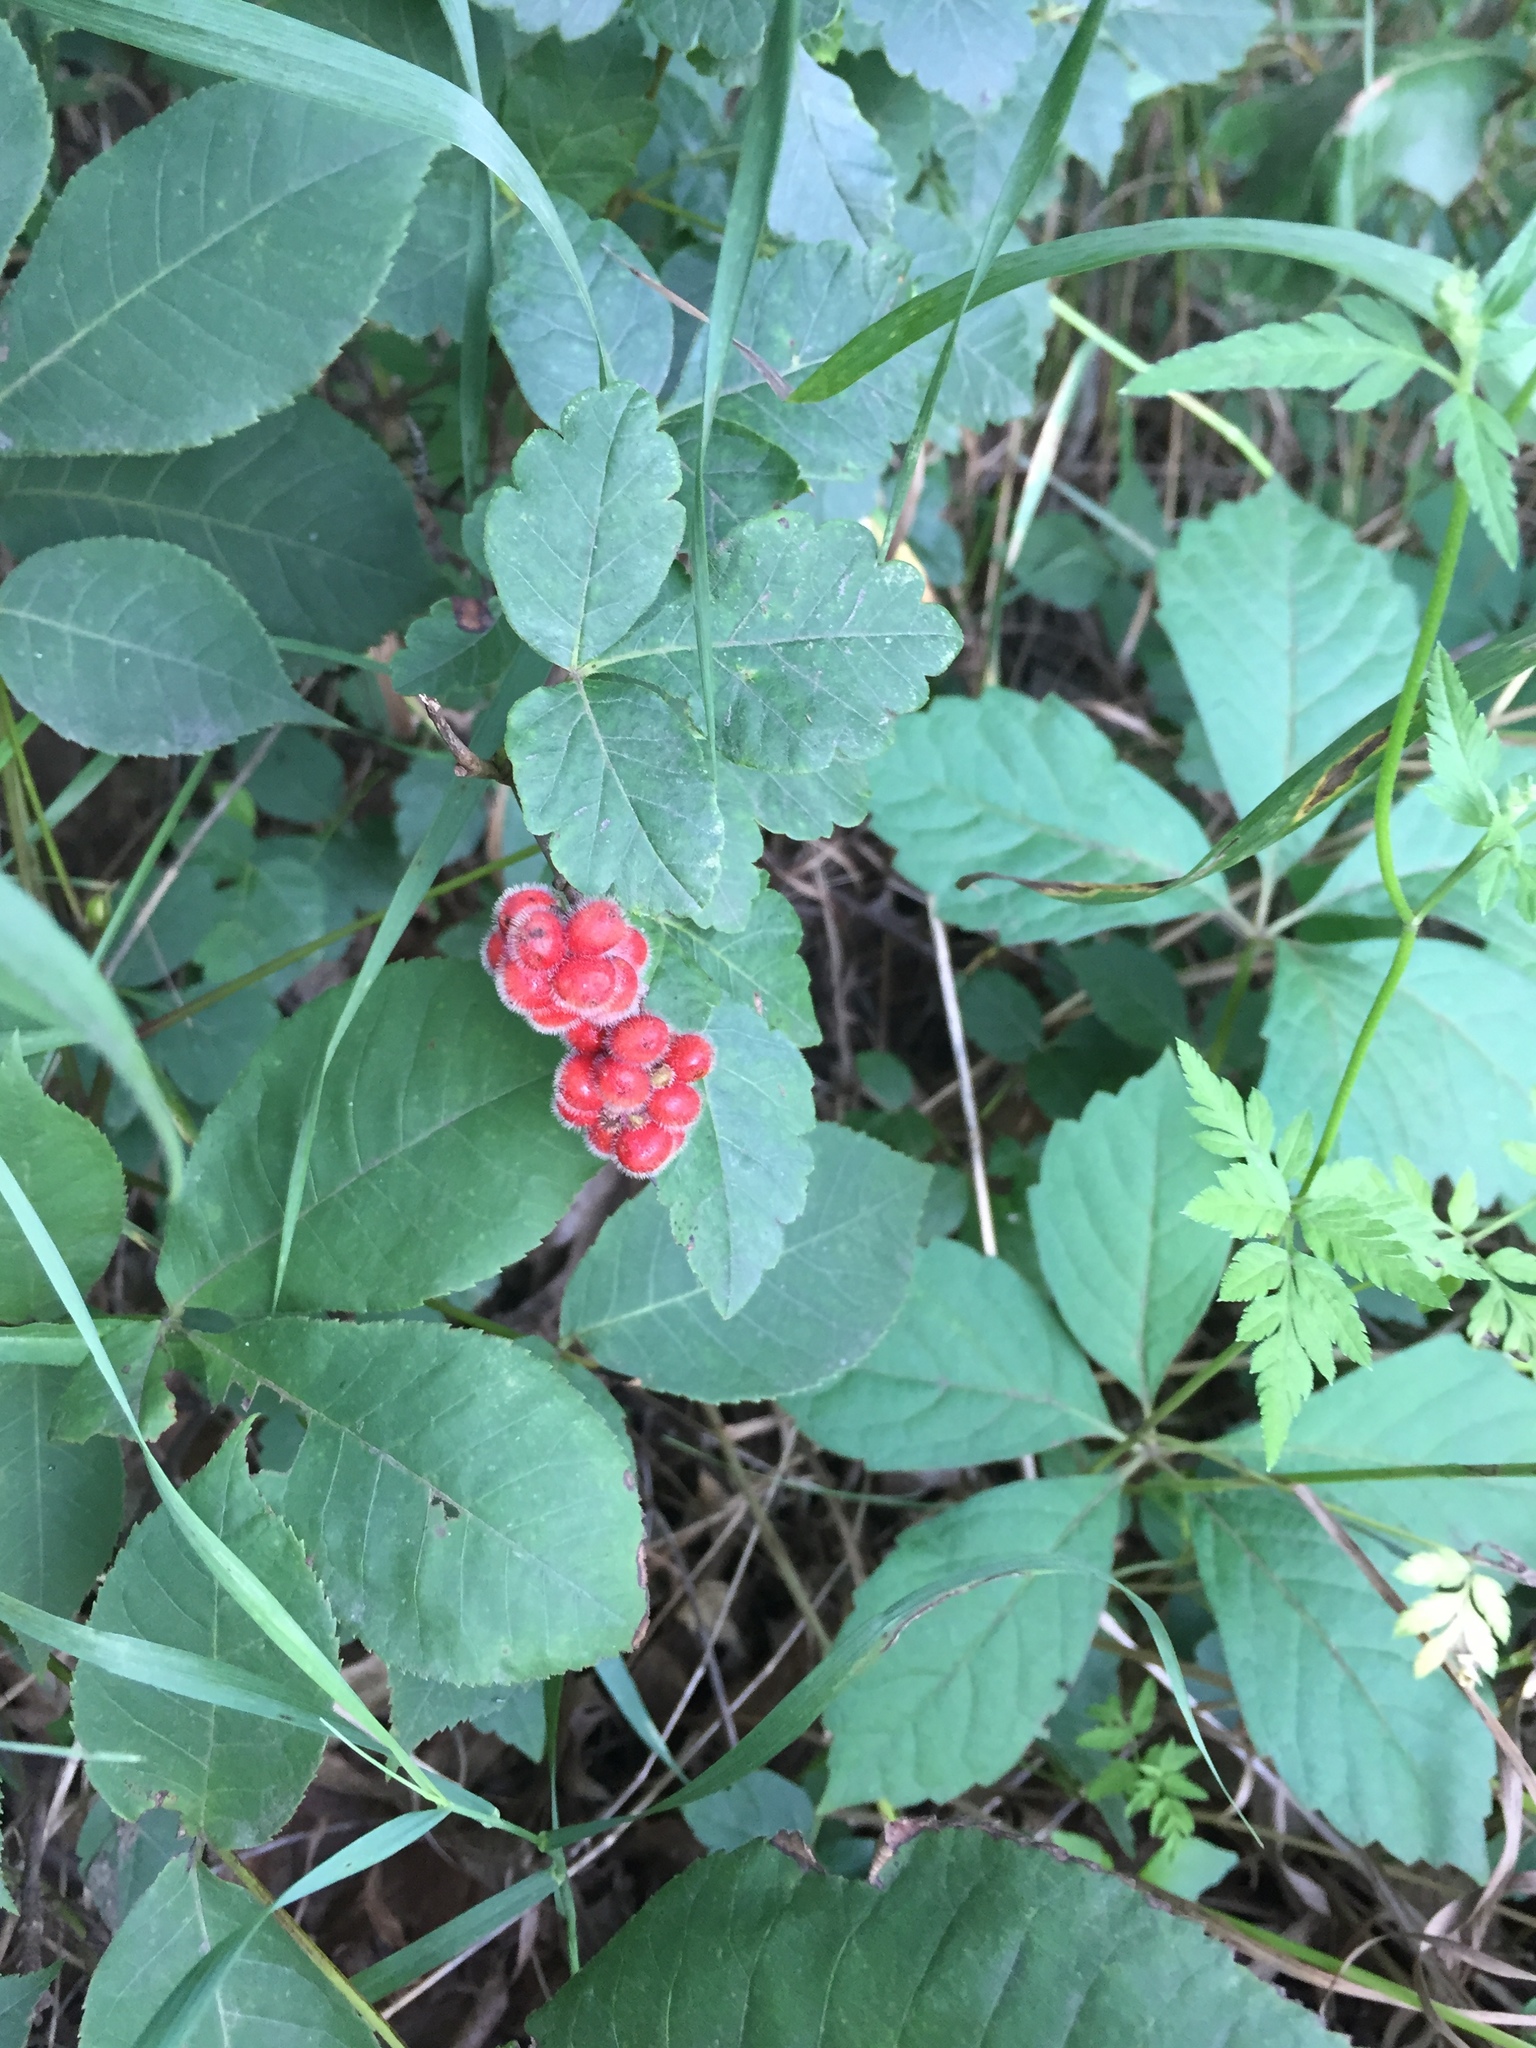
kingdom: Plantae
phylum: Tracheophyta
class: Magnoliopsida
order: Sapindales
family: Anacardiaceae
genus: Rhus
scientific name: Rhus aromatica
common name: Aromatic sumac
